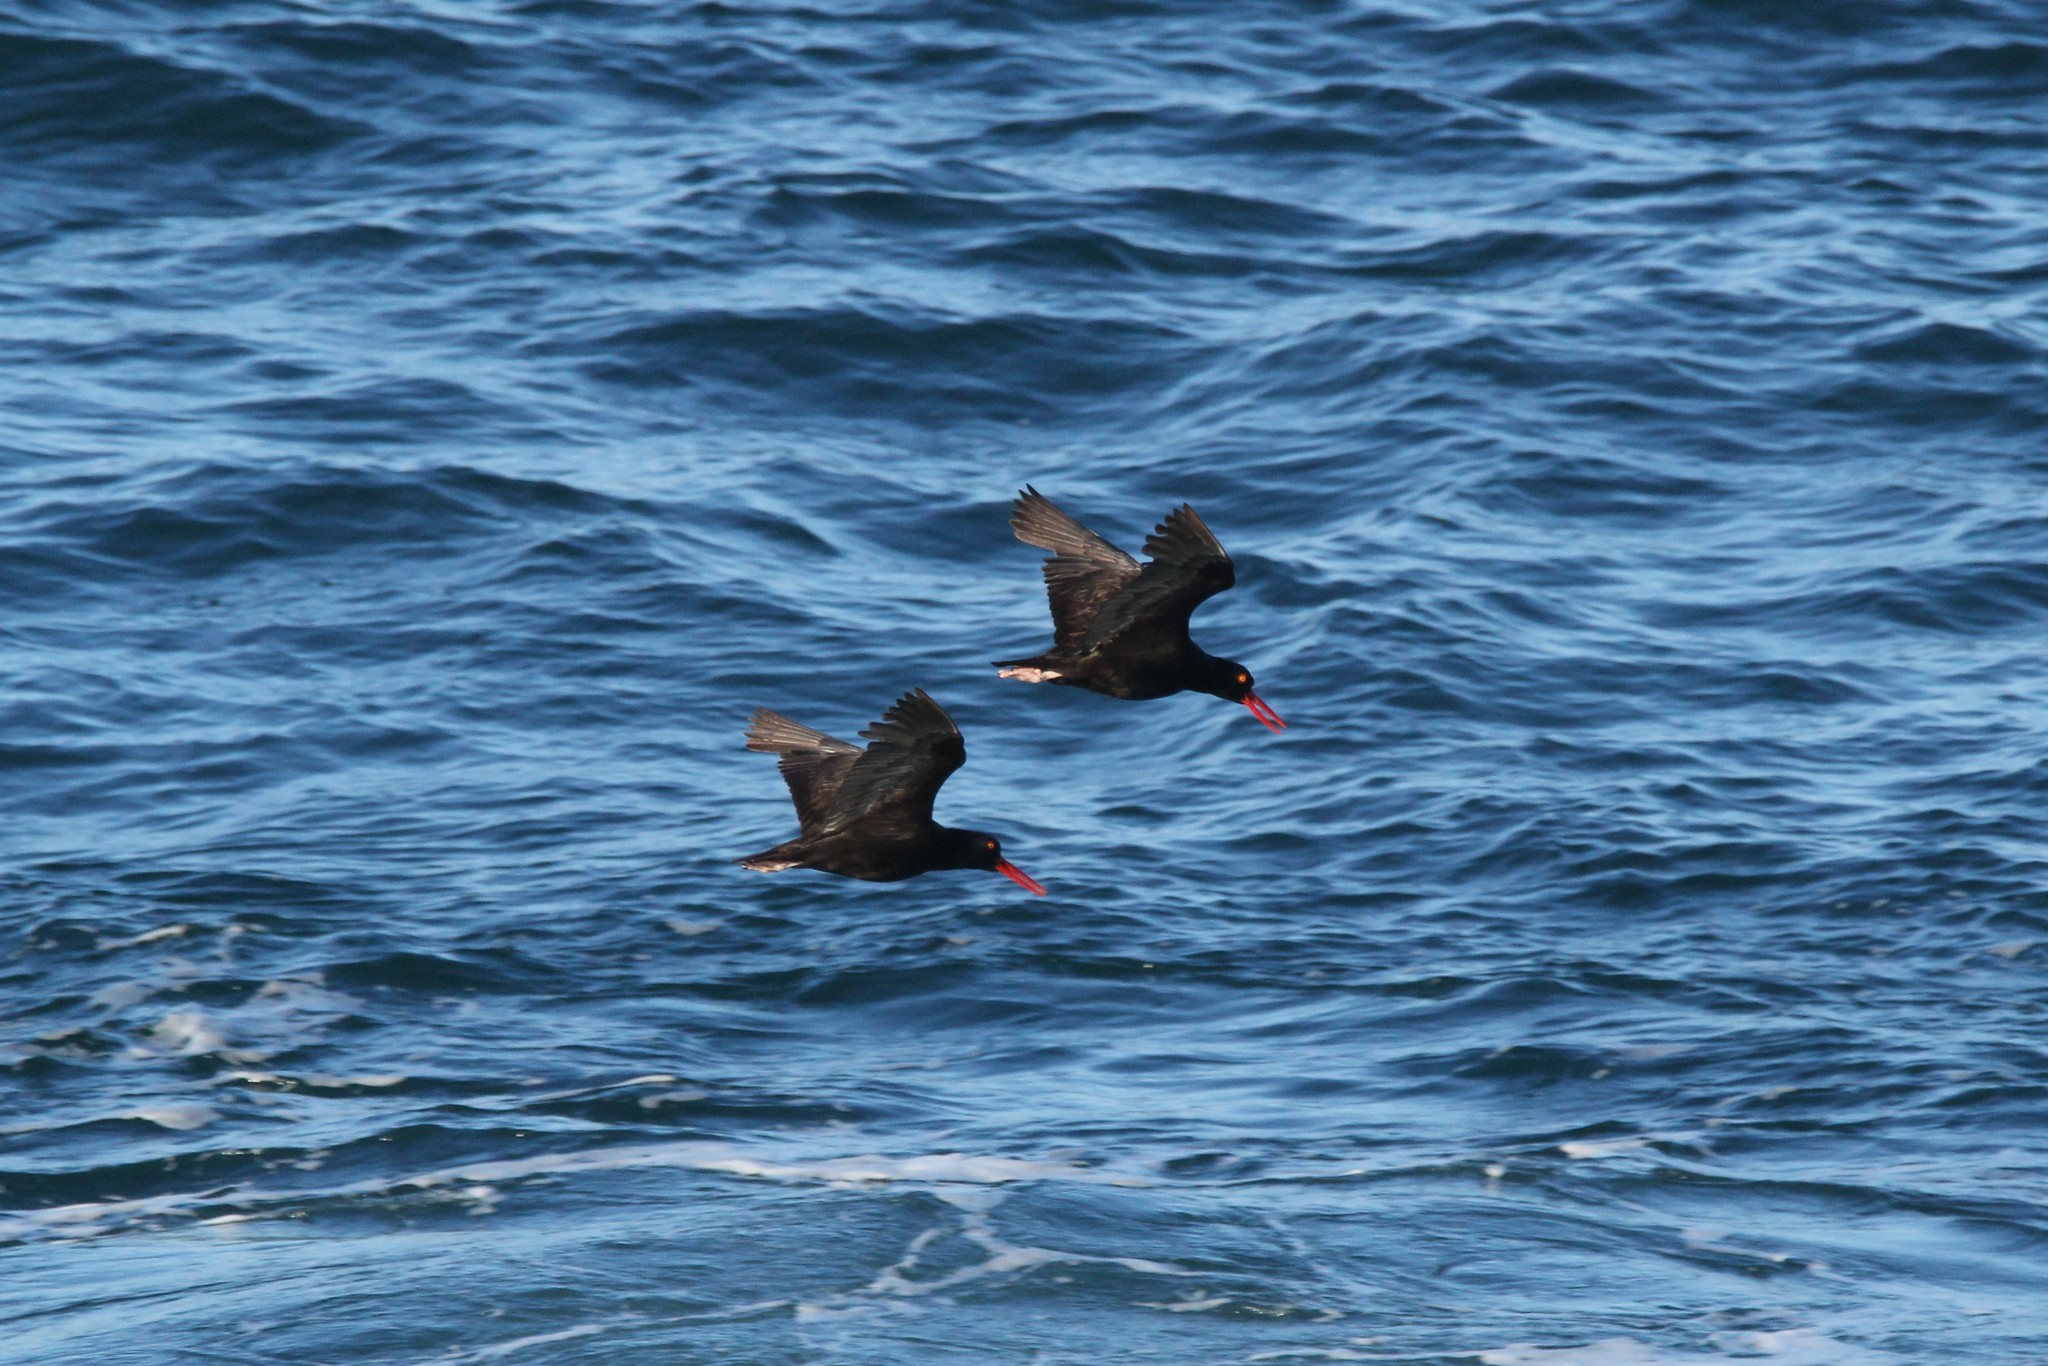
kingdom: Animalia
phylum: Chordata
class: Aves
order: Charadriiformes
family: Haematopodidae
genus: Haematopus
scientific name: Haematopus bachmani
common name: Black oystercatcher
